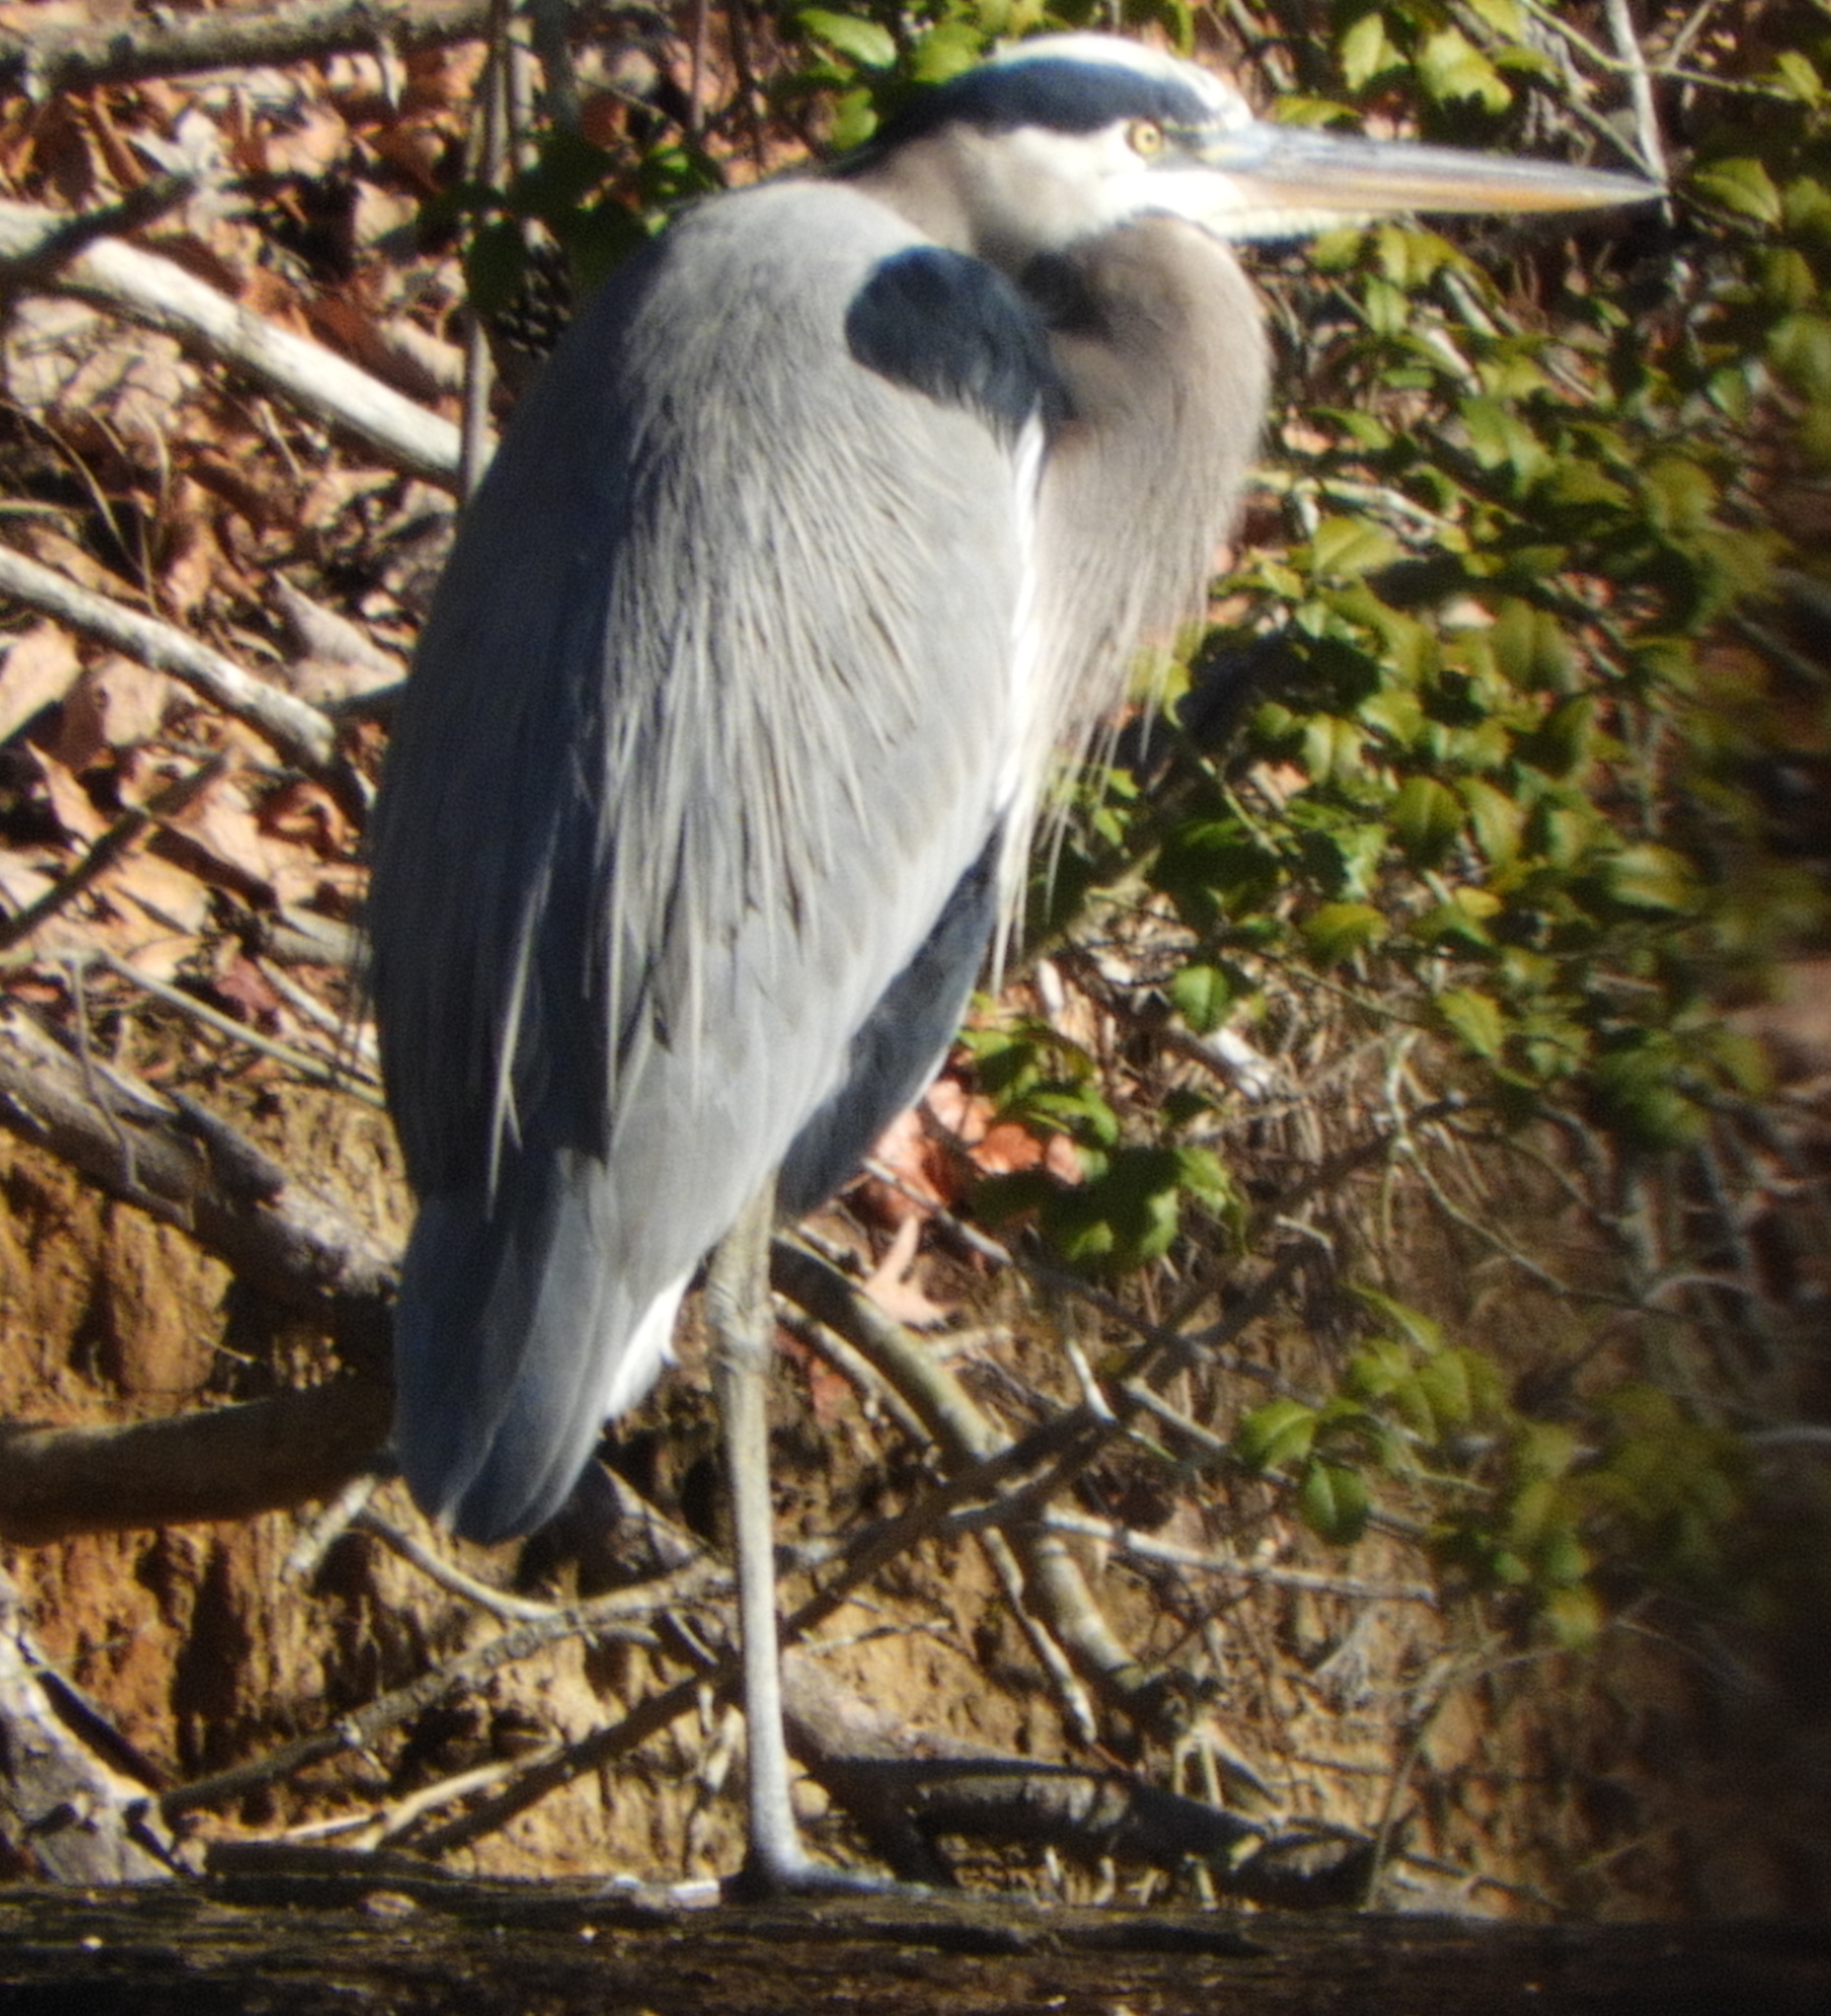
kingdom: Animalia
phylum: Chordata
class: Aves
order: Pelecaniformes
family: Ardeidae
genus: Ardea
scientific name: Ardea herodias
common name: Great blue heron
